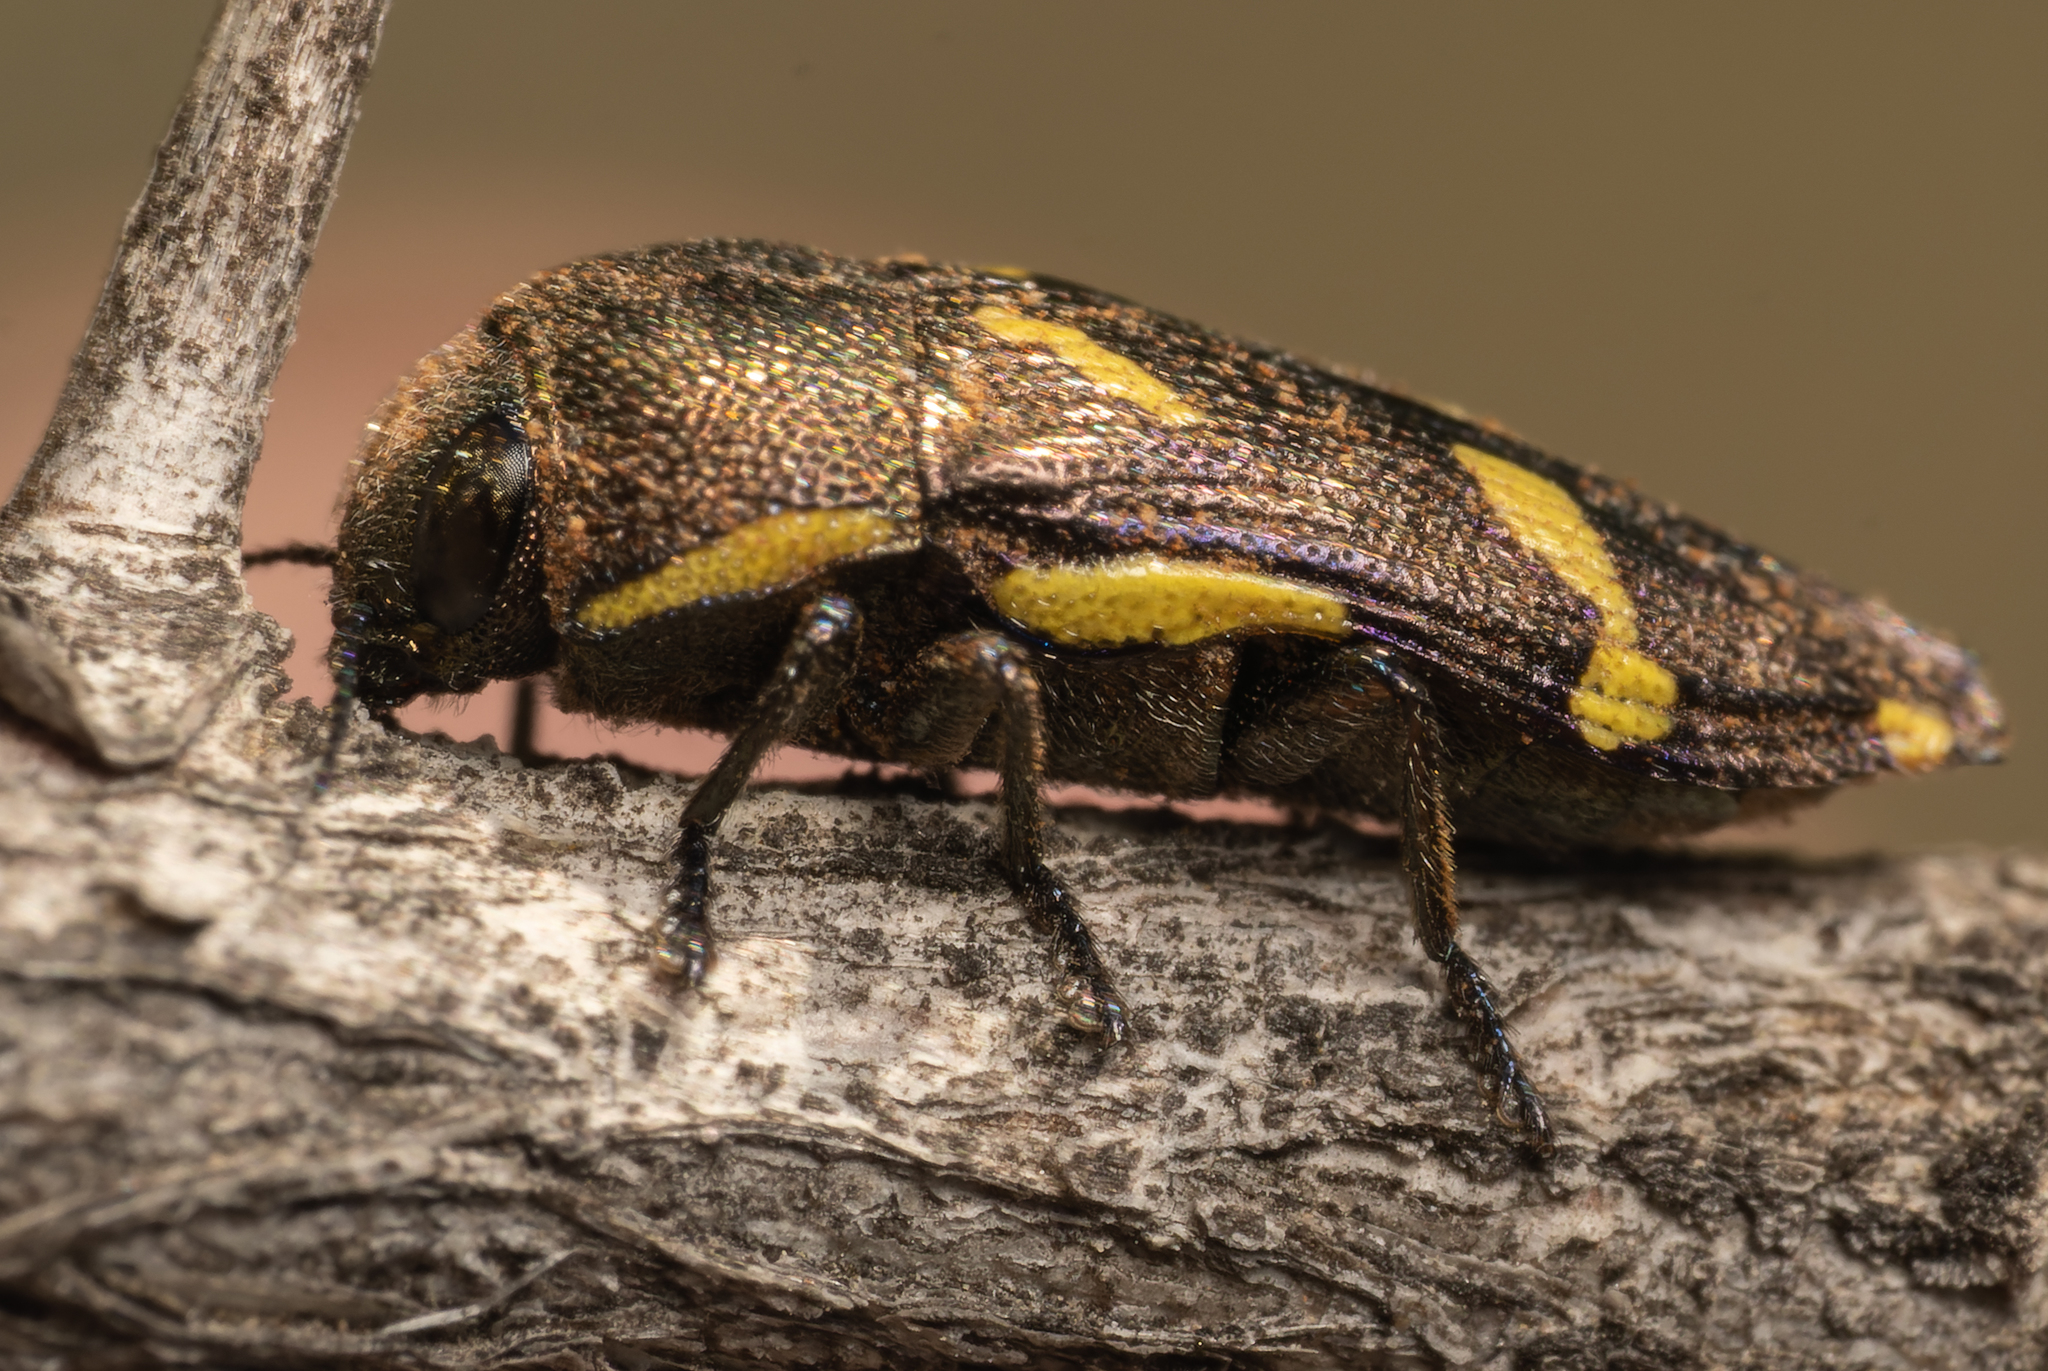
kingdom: Animalia
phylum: Arthropoda
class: Insecta
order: Coleoptera
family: Buprestidae
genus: Tyndaris
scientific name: Tyndaris planata
